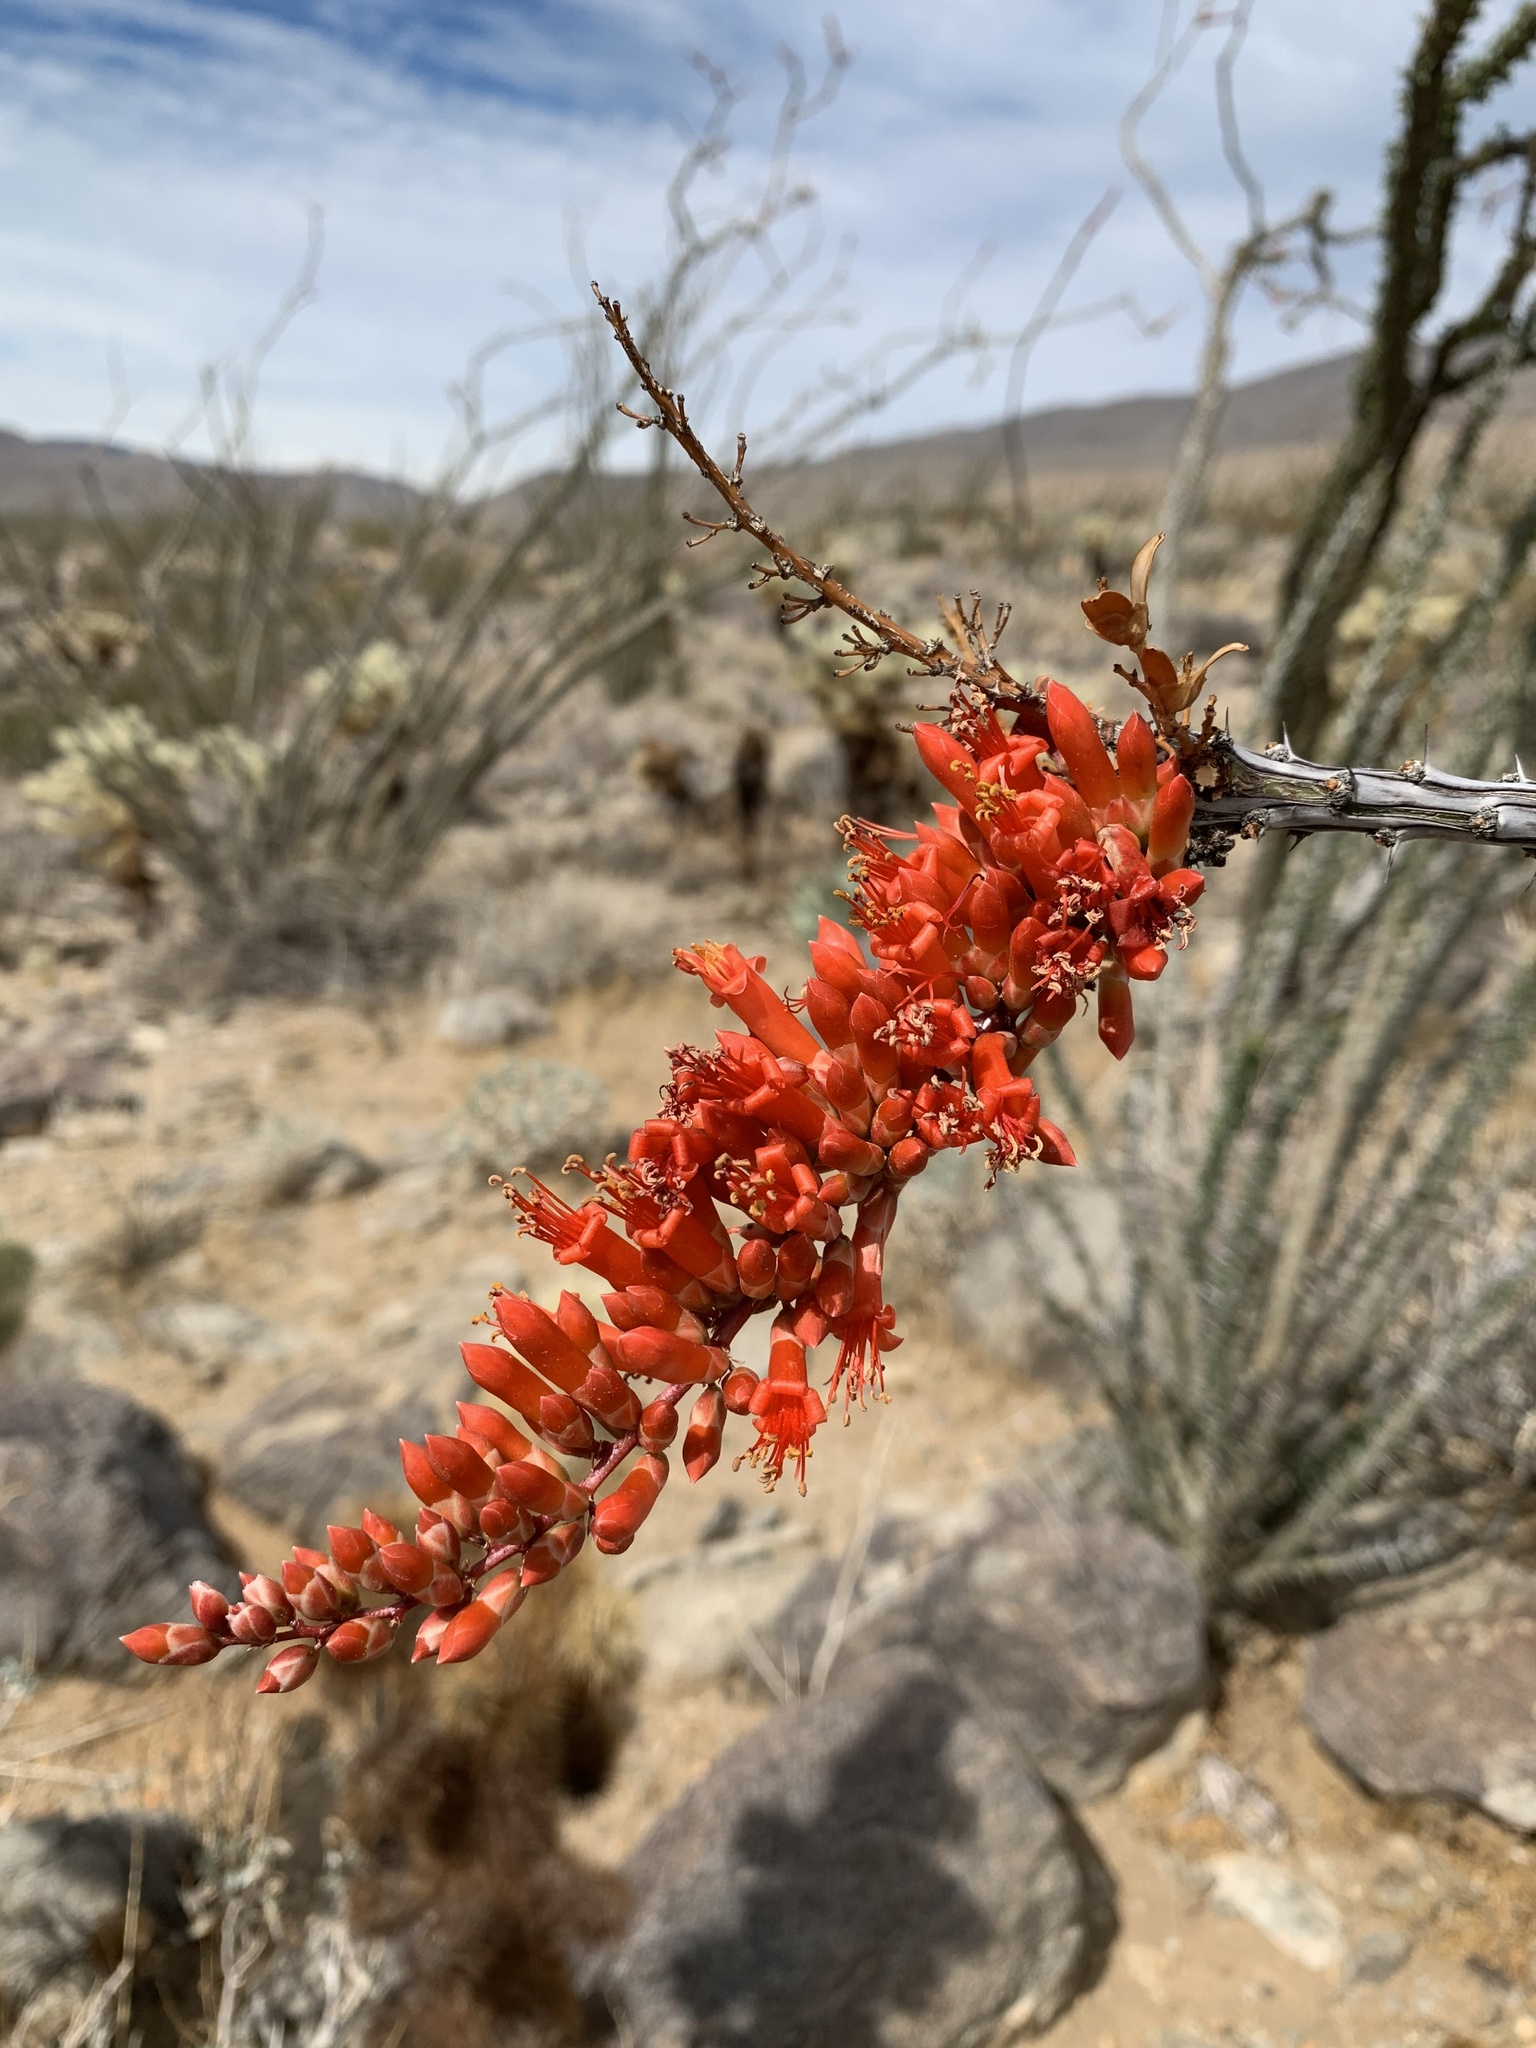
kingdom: Plantae
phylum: Tracheophyta
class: Magnoliopsida
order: Ericales
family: Fouquieriaceae
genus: Fouquieria
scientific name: Fouquieria splendens
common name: Vine-cactus
